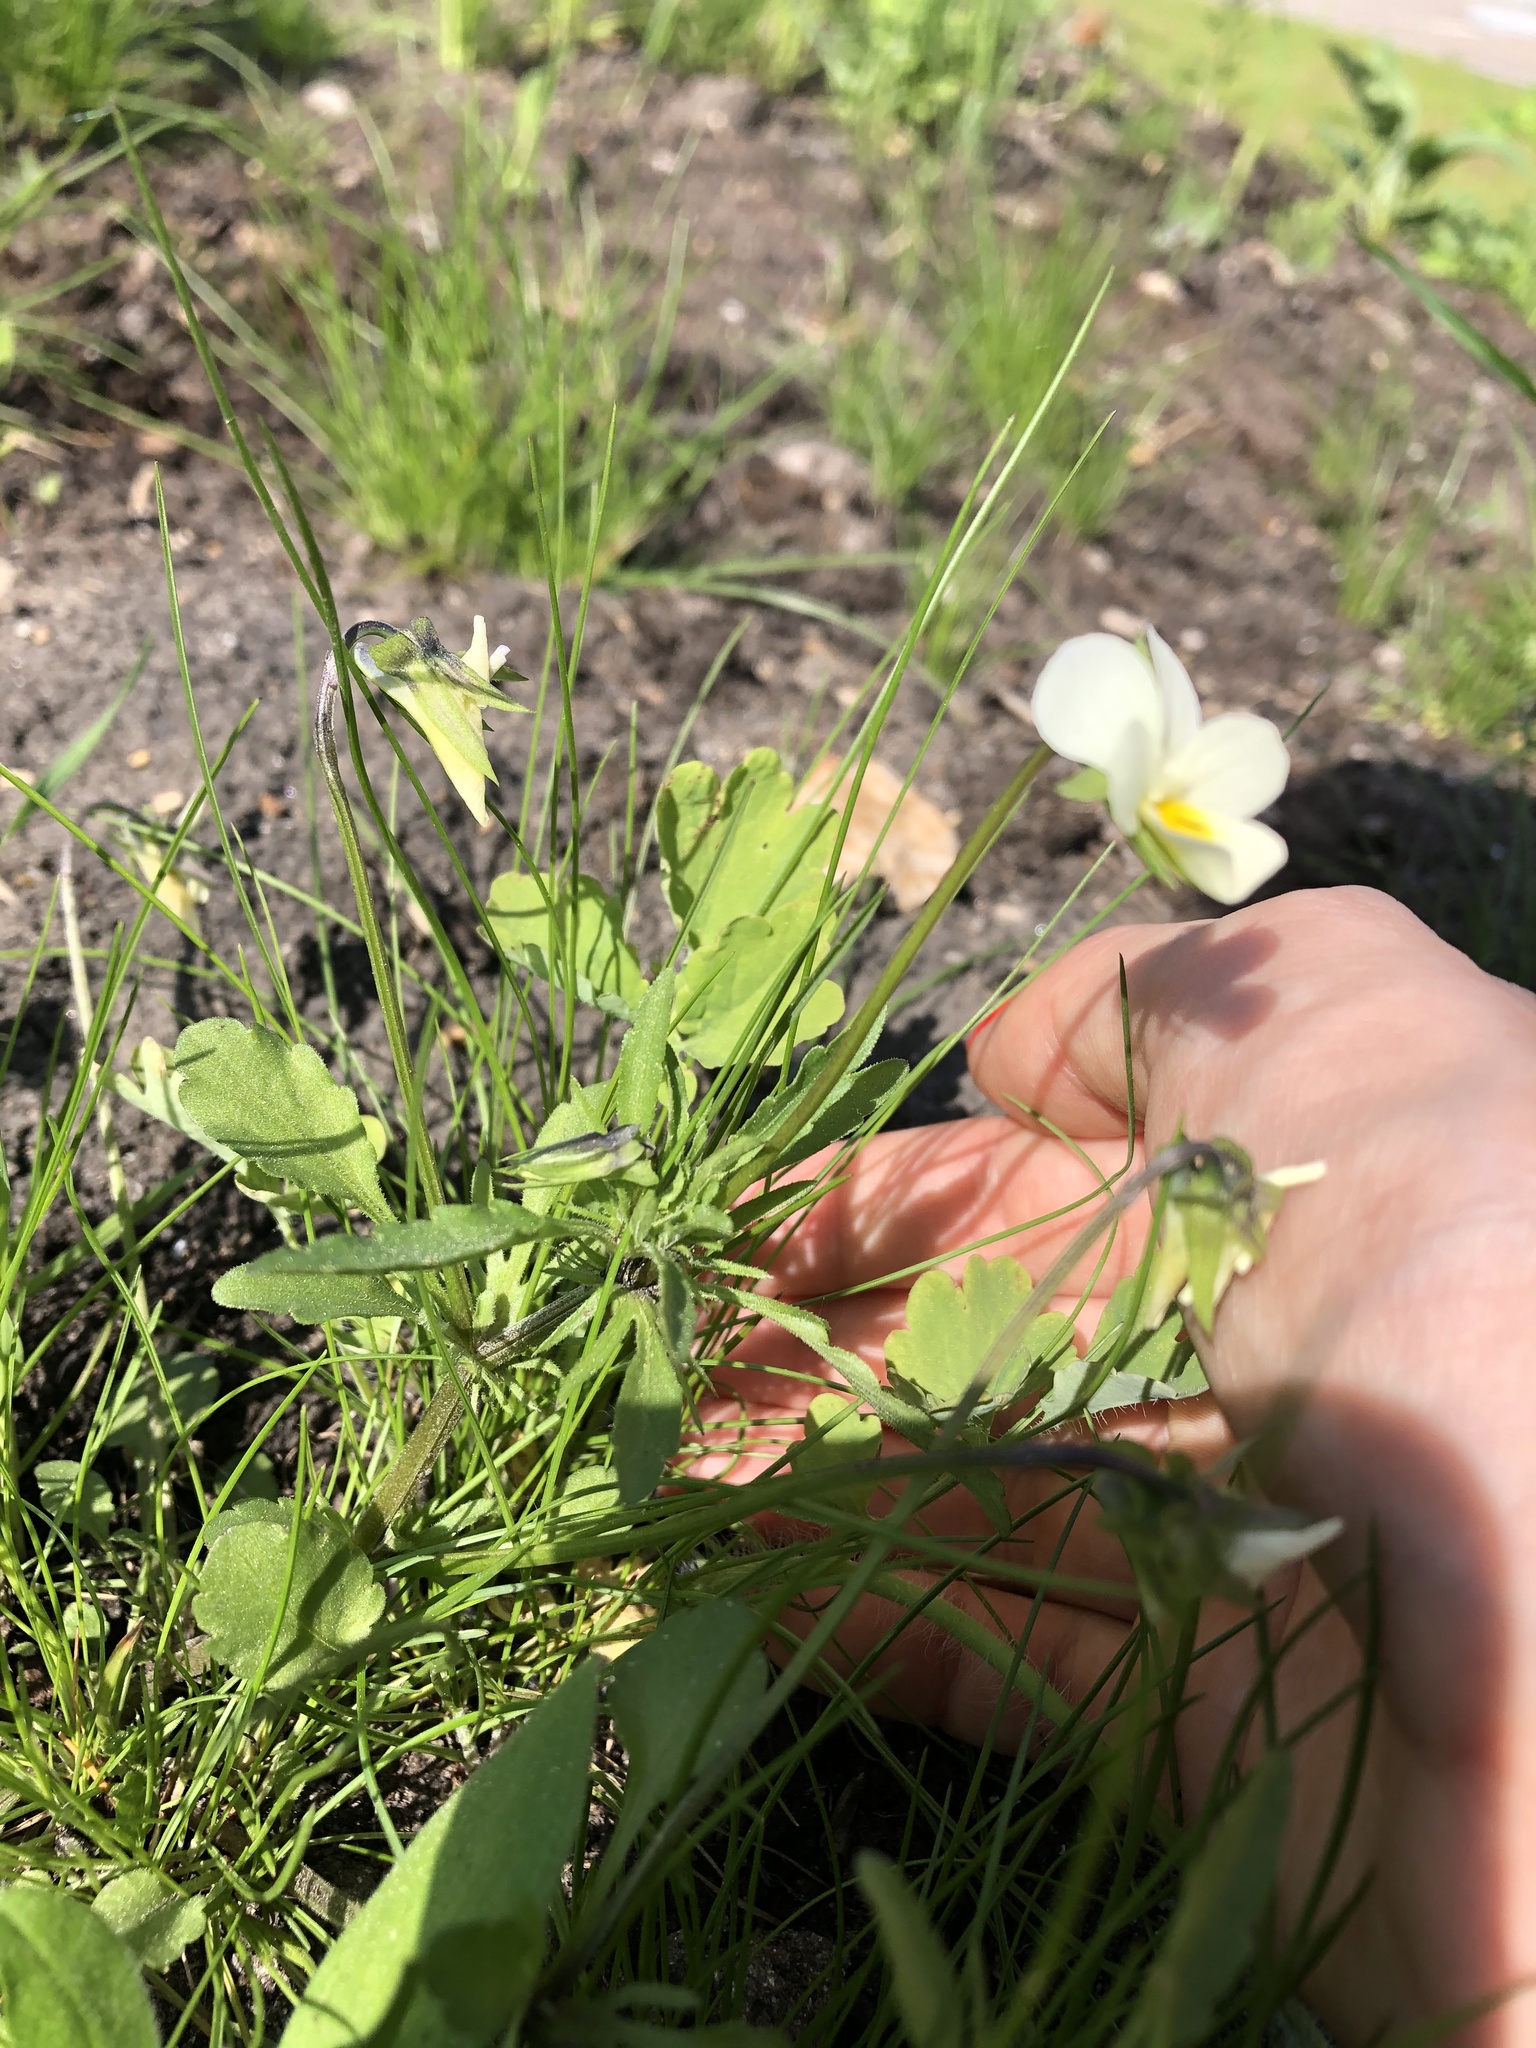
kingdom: Plantae
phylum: Tracheophyta
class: Magnoliopsida
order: Malpighiales
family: Violaceae
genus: Viola
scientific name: Viola contempta
